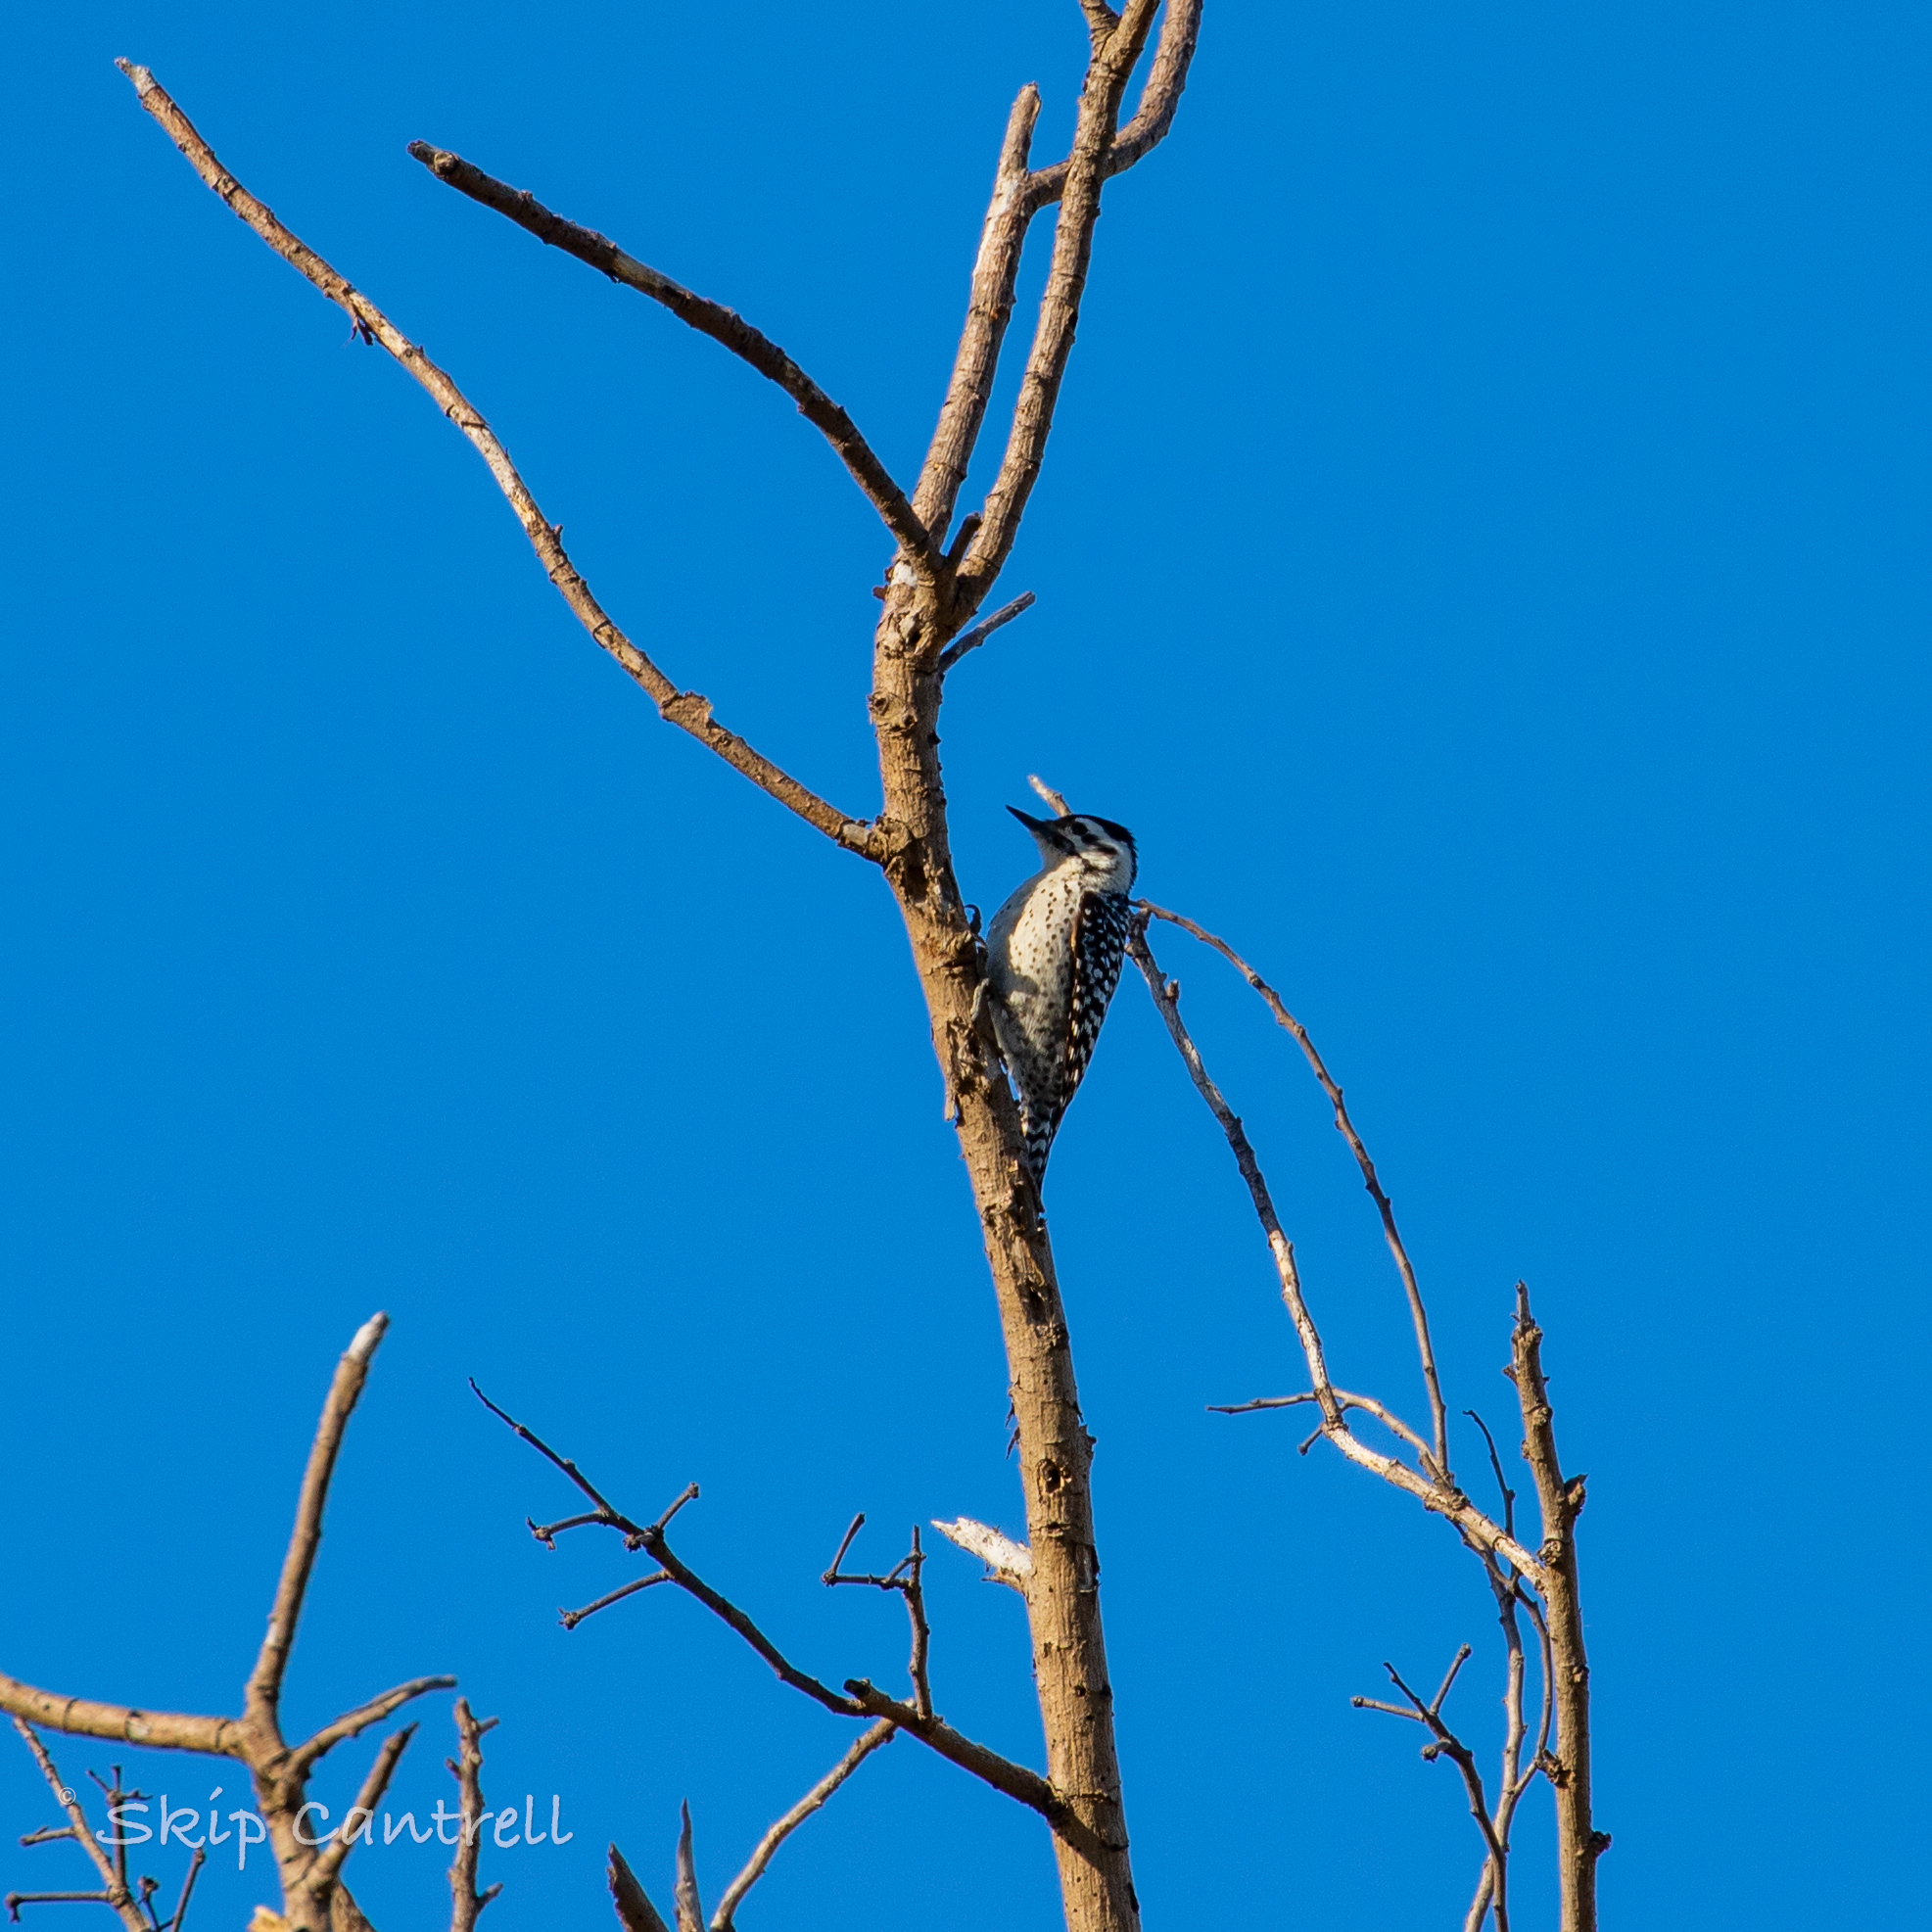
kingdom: Animalia
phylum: Chordata
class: Aves
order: Piciformes
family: Picidae
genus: Dryobates
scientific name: Dryobates scalaris
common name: Ladder-backed woodpecker
